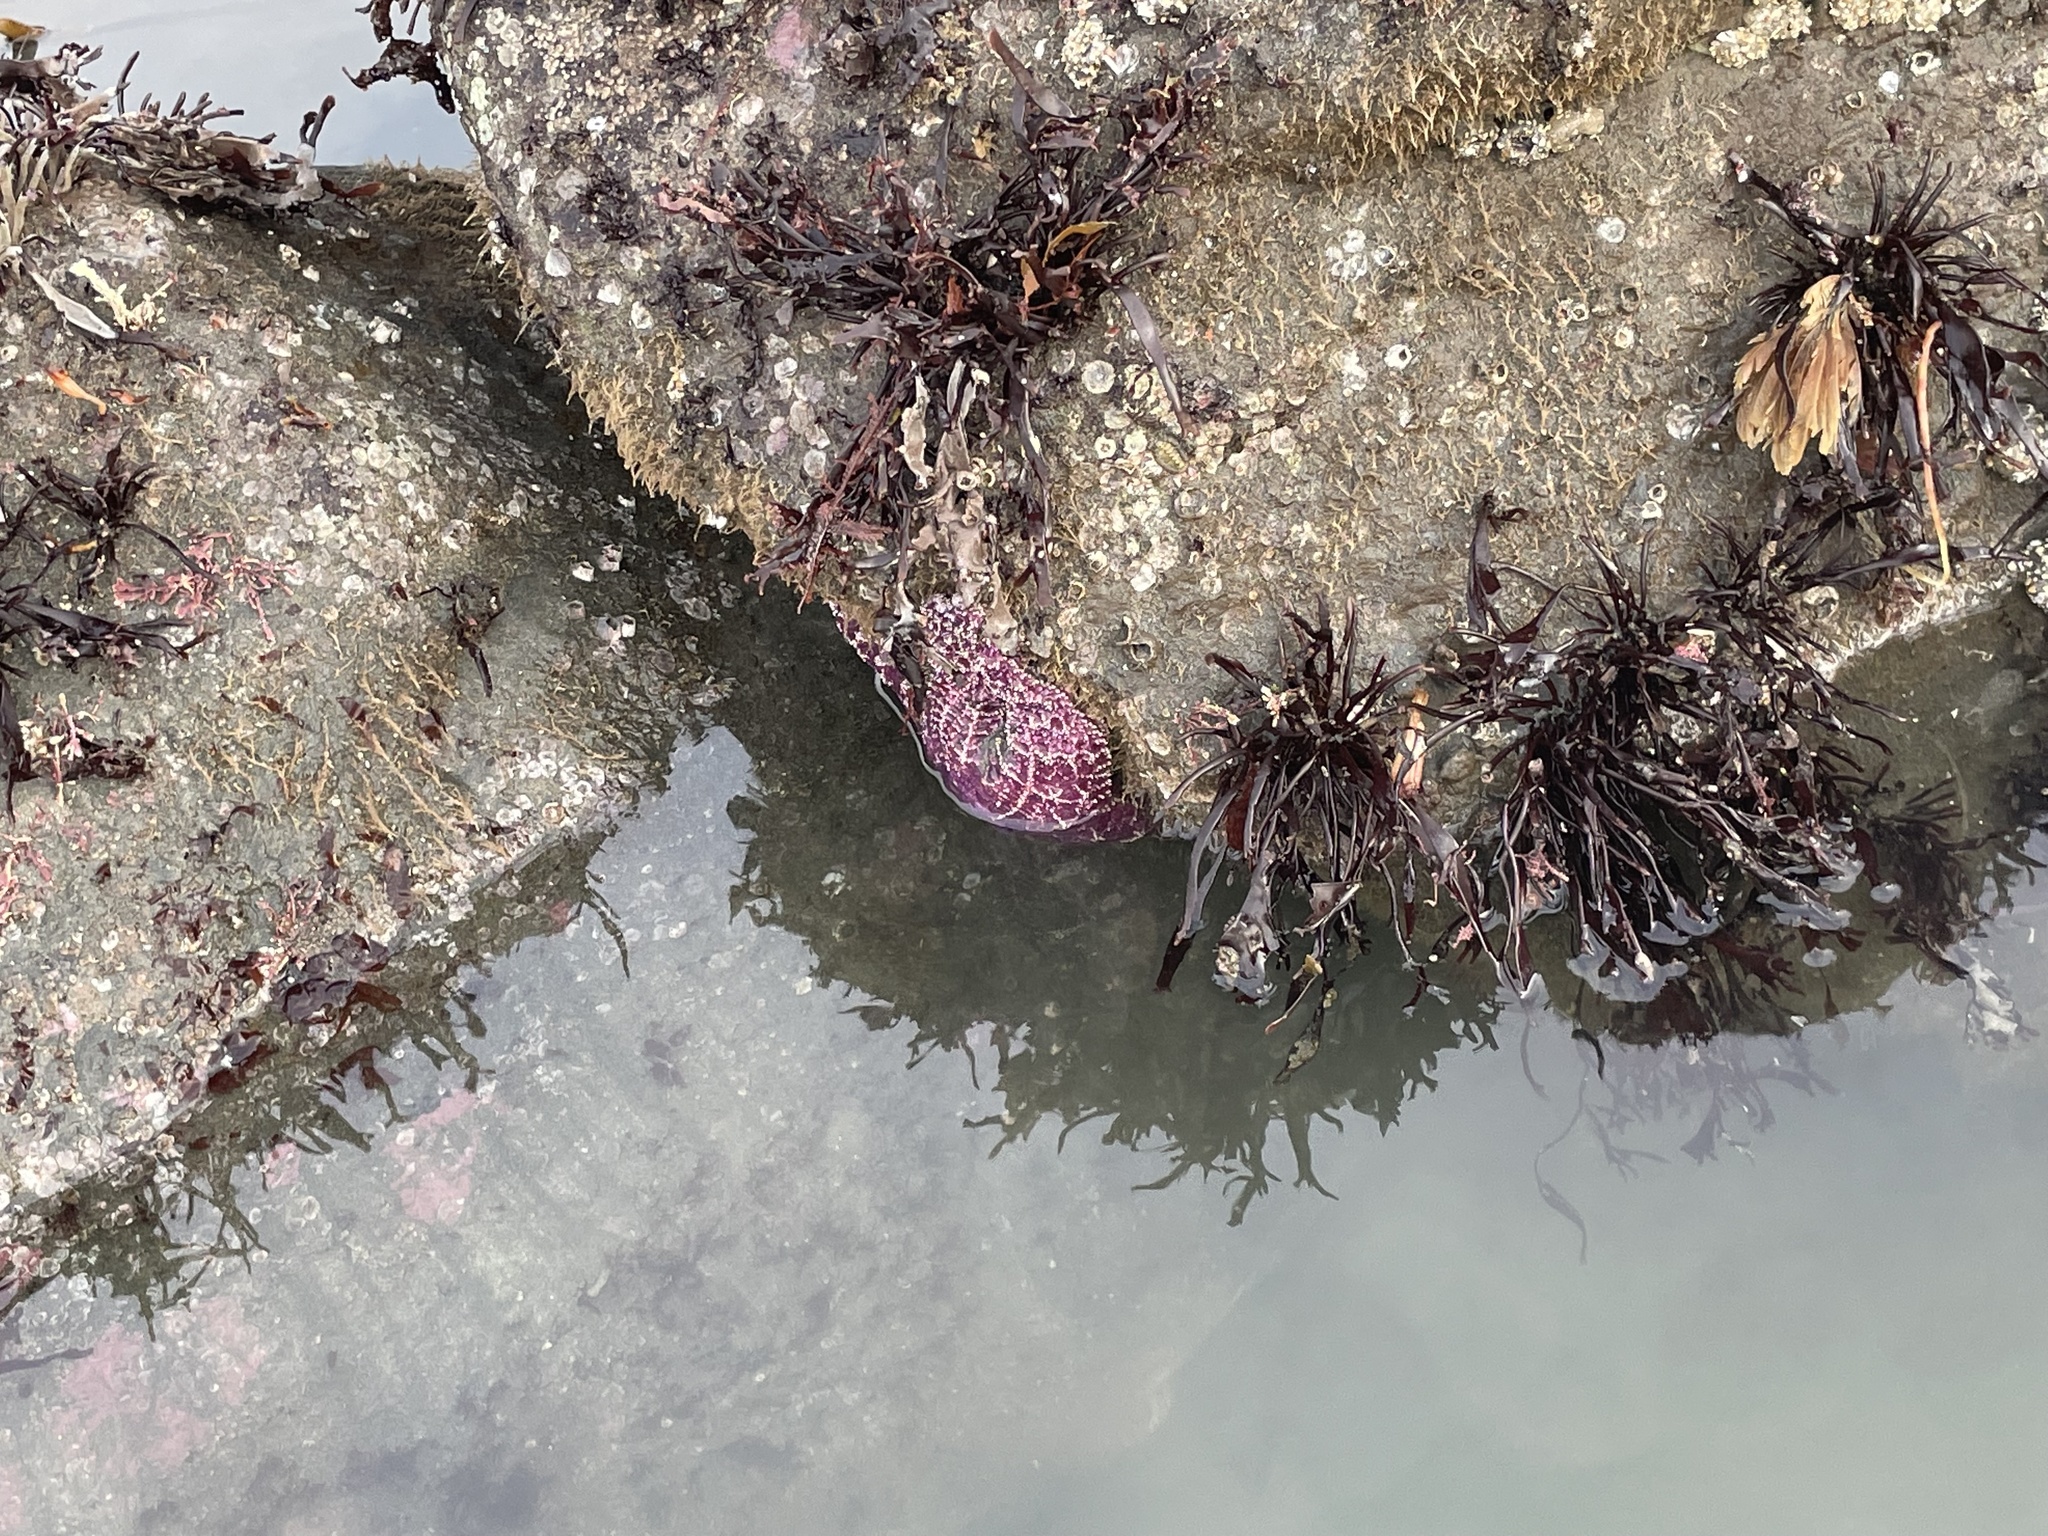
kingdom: Animalia
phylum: Echinodermata
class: Asteroidea
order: Forcipulatida
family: Asteriidae
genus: Pisaster
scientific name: Pisaster ochraceus
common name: Ochre stars
